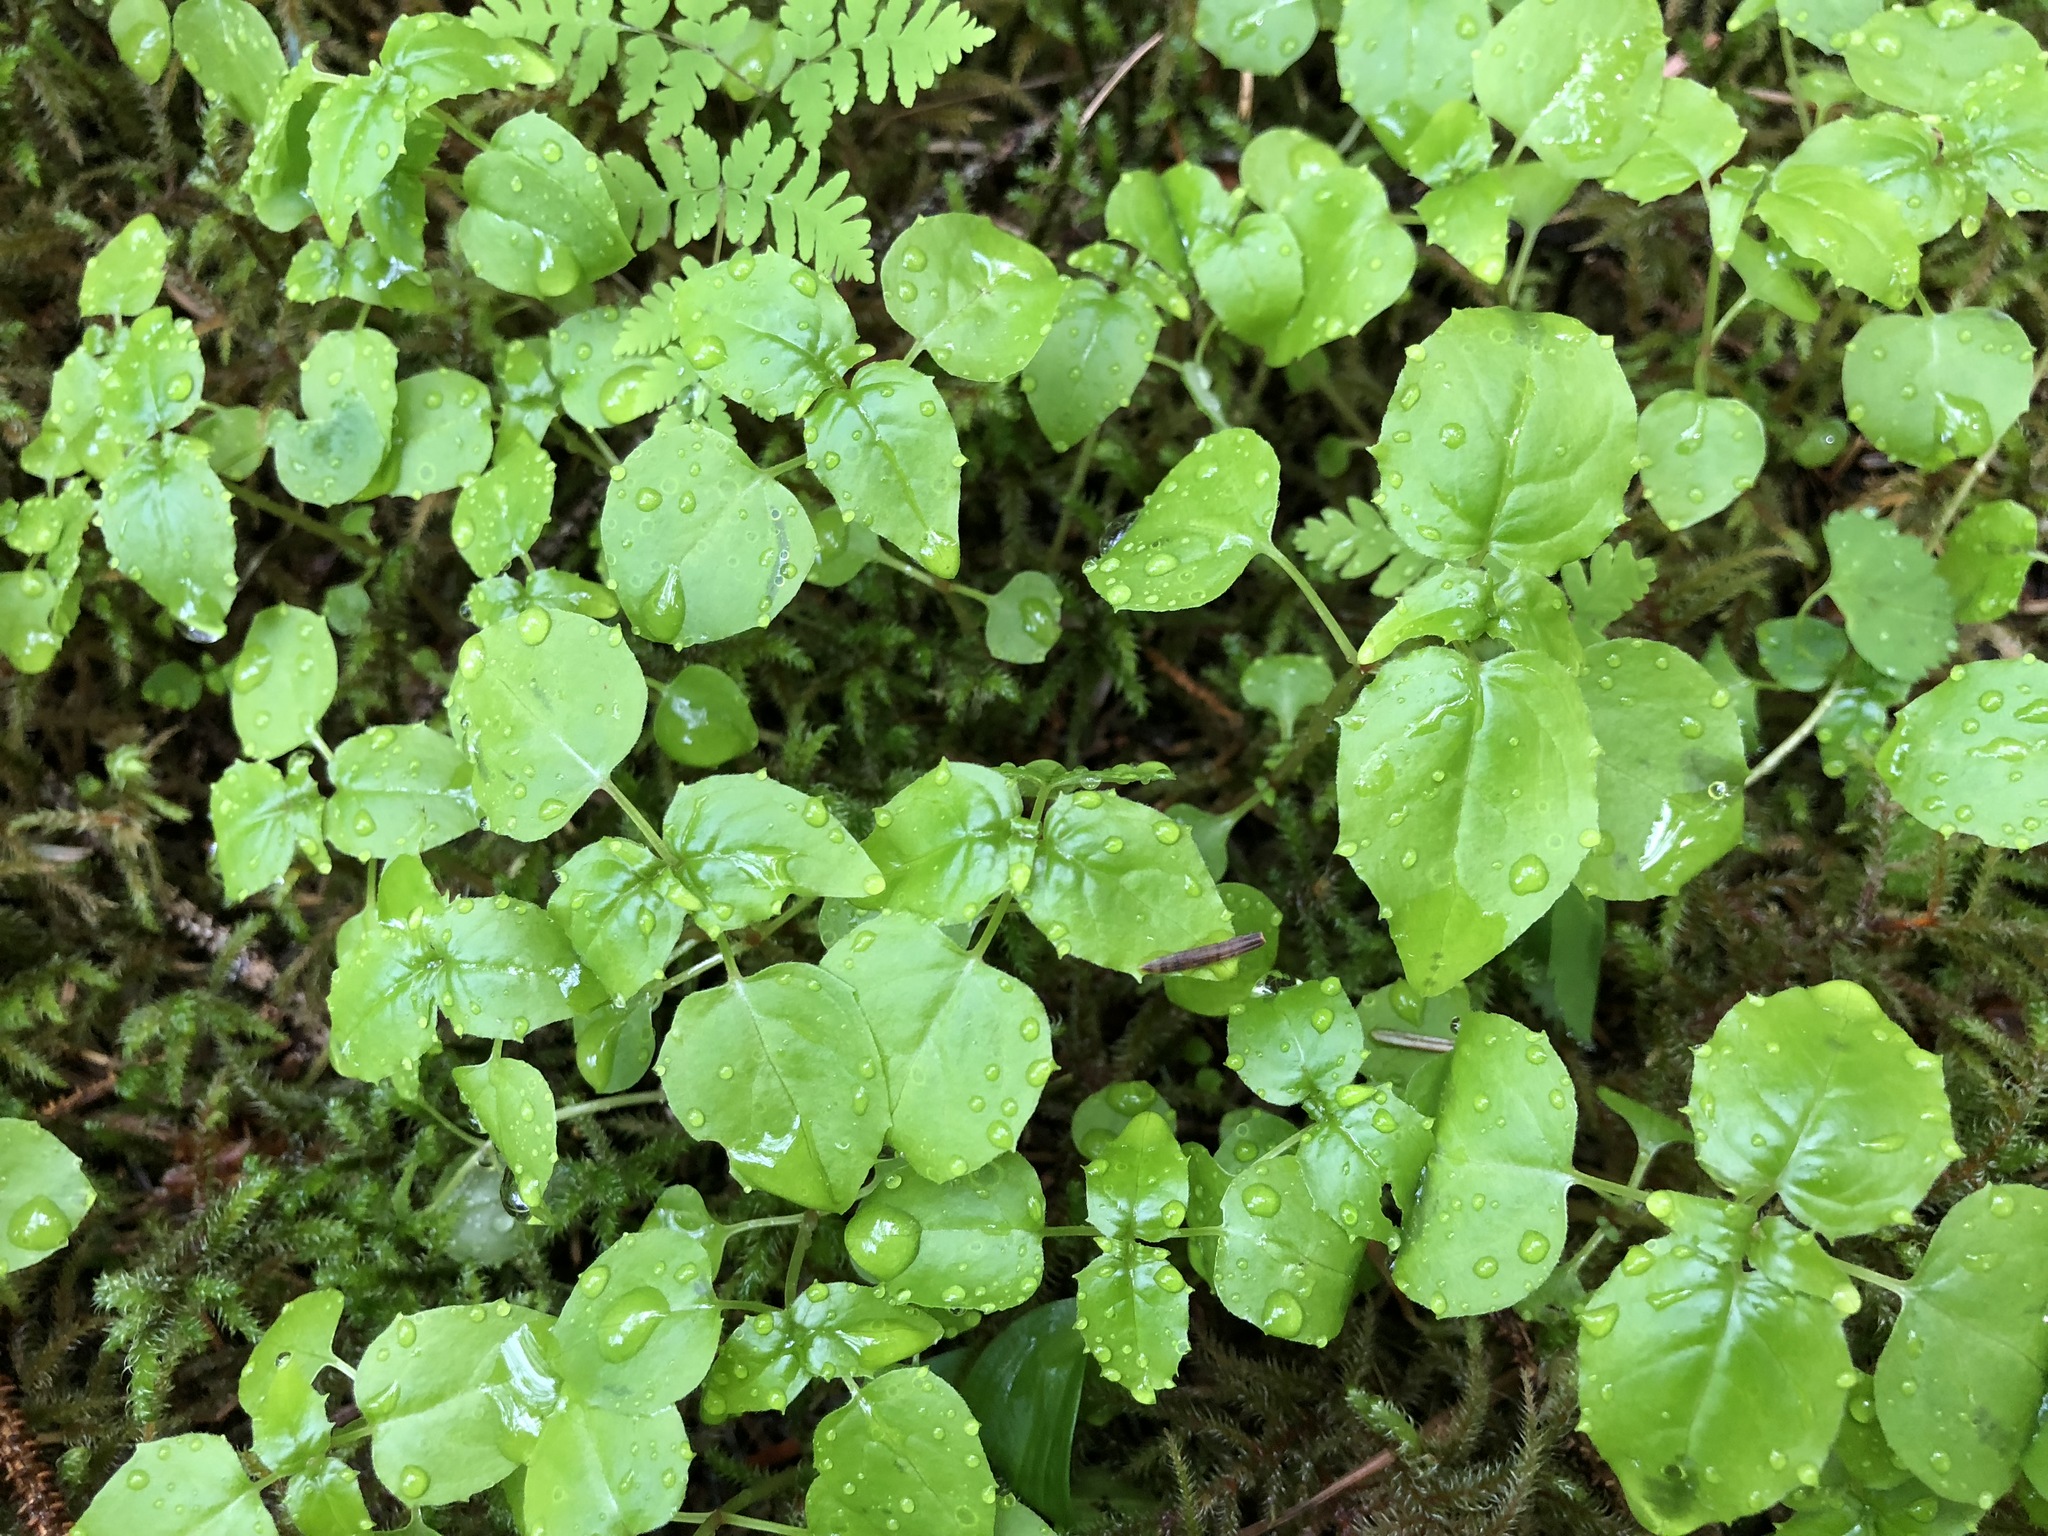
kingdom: Plantae
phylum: Tracheophyta
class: Magnoliopsida
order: Myrtales
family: Onagraceae
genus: Circaea
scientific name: Circaea alpina
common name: Alpine enchanter's-nightshade
